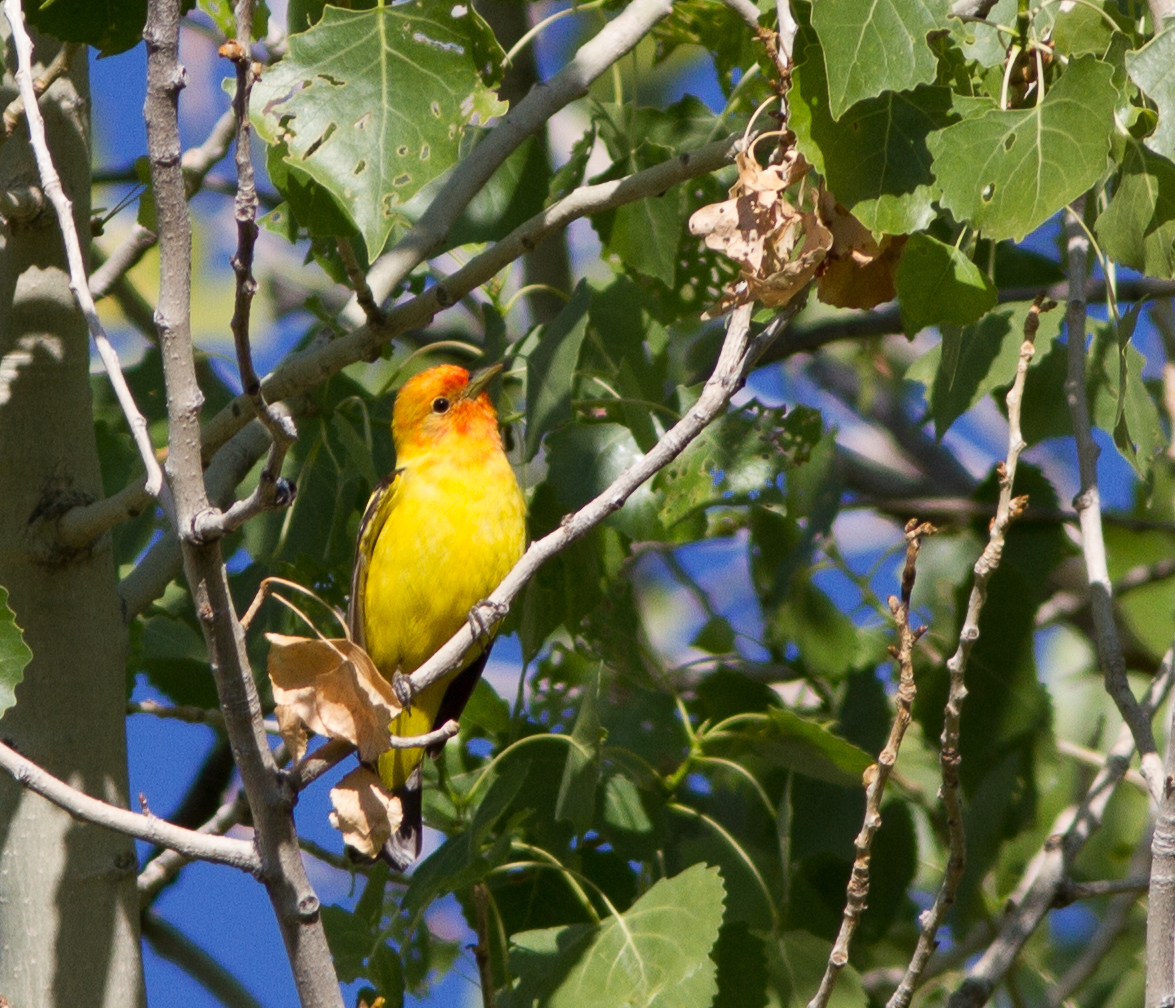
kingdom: Animalia
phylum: Chordata
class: Aves
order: Passeriformes
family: Cardinalidae
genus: Piranga
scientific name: Piranga ludoviciana
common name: Western tanager
